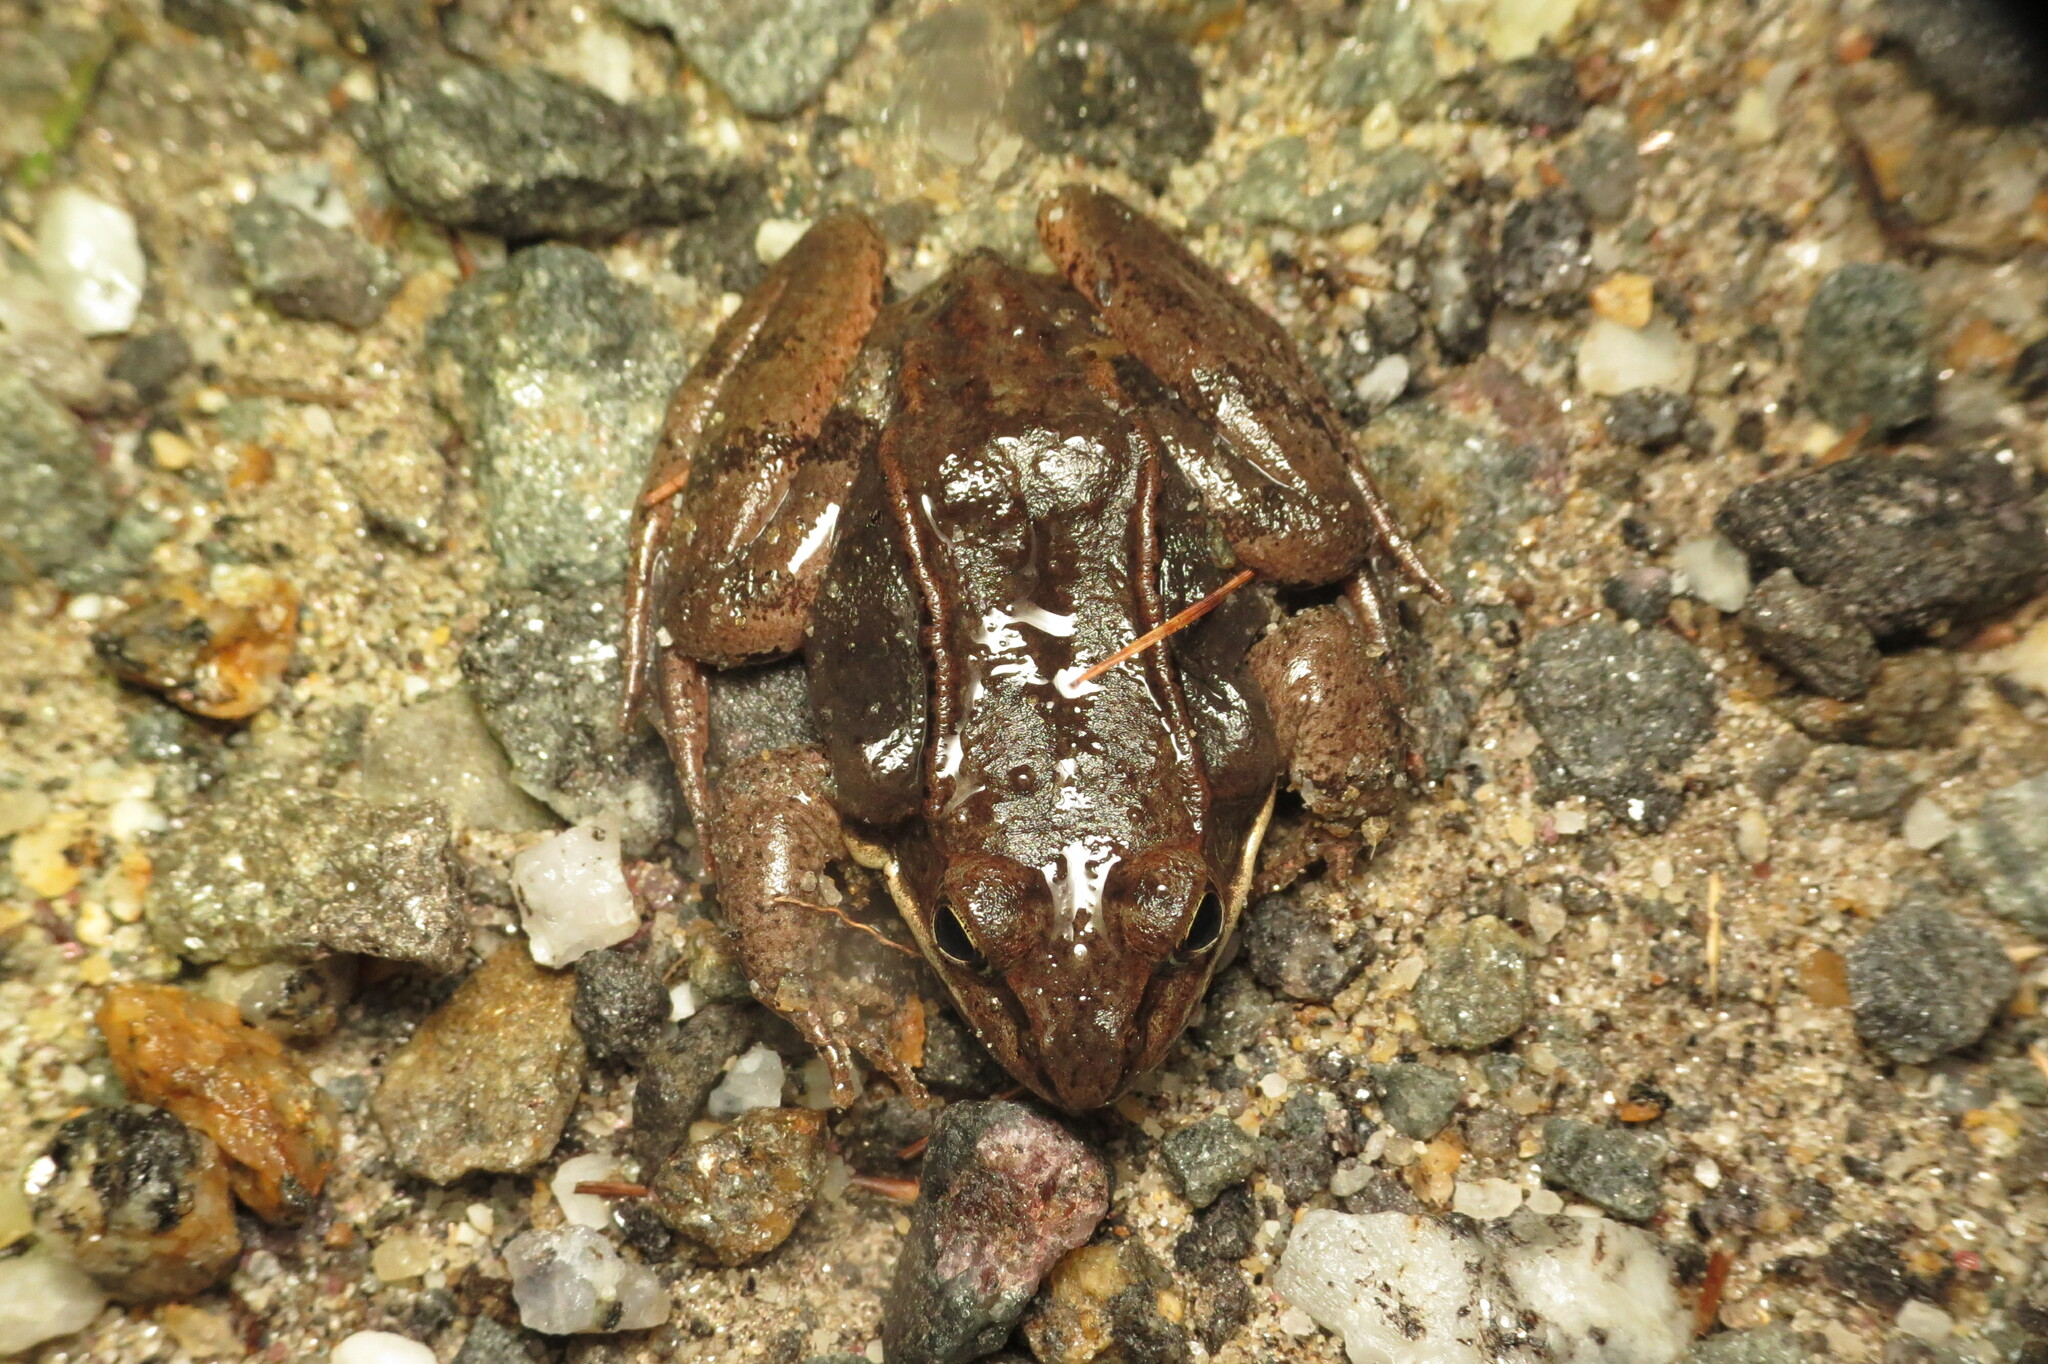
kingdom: Animalia
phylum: Chordata
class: Amphibia
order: Anura
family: Ranidae
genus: Lithobates
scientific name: Lithobates sylvaticus
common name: Wood frog
